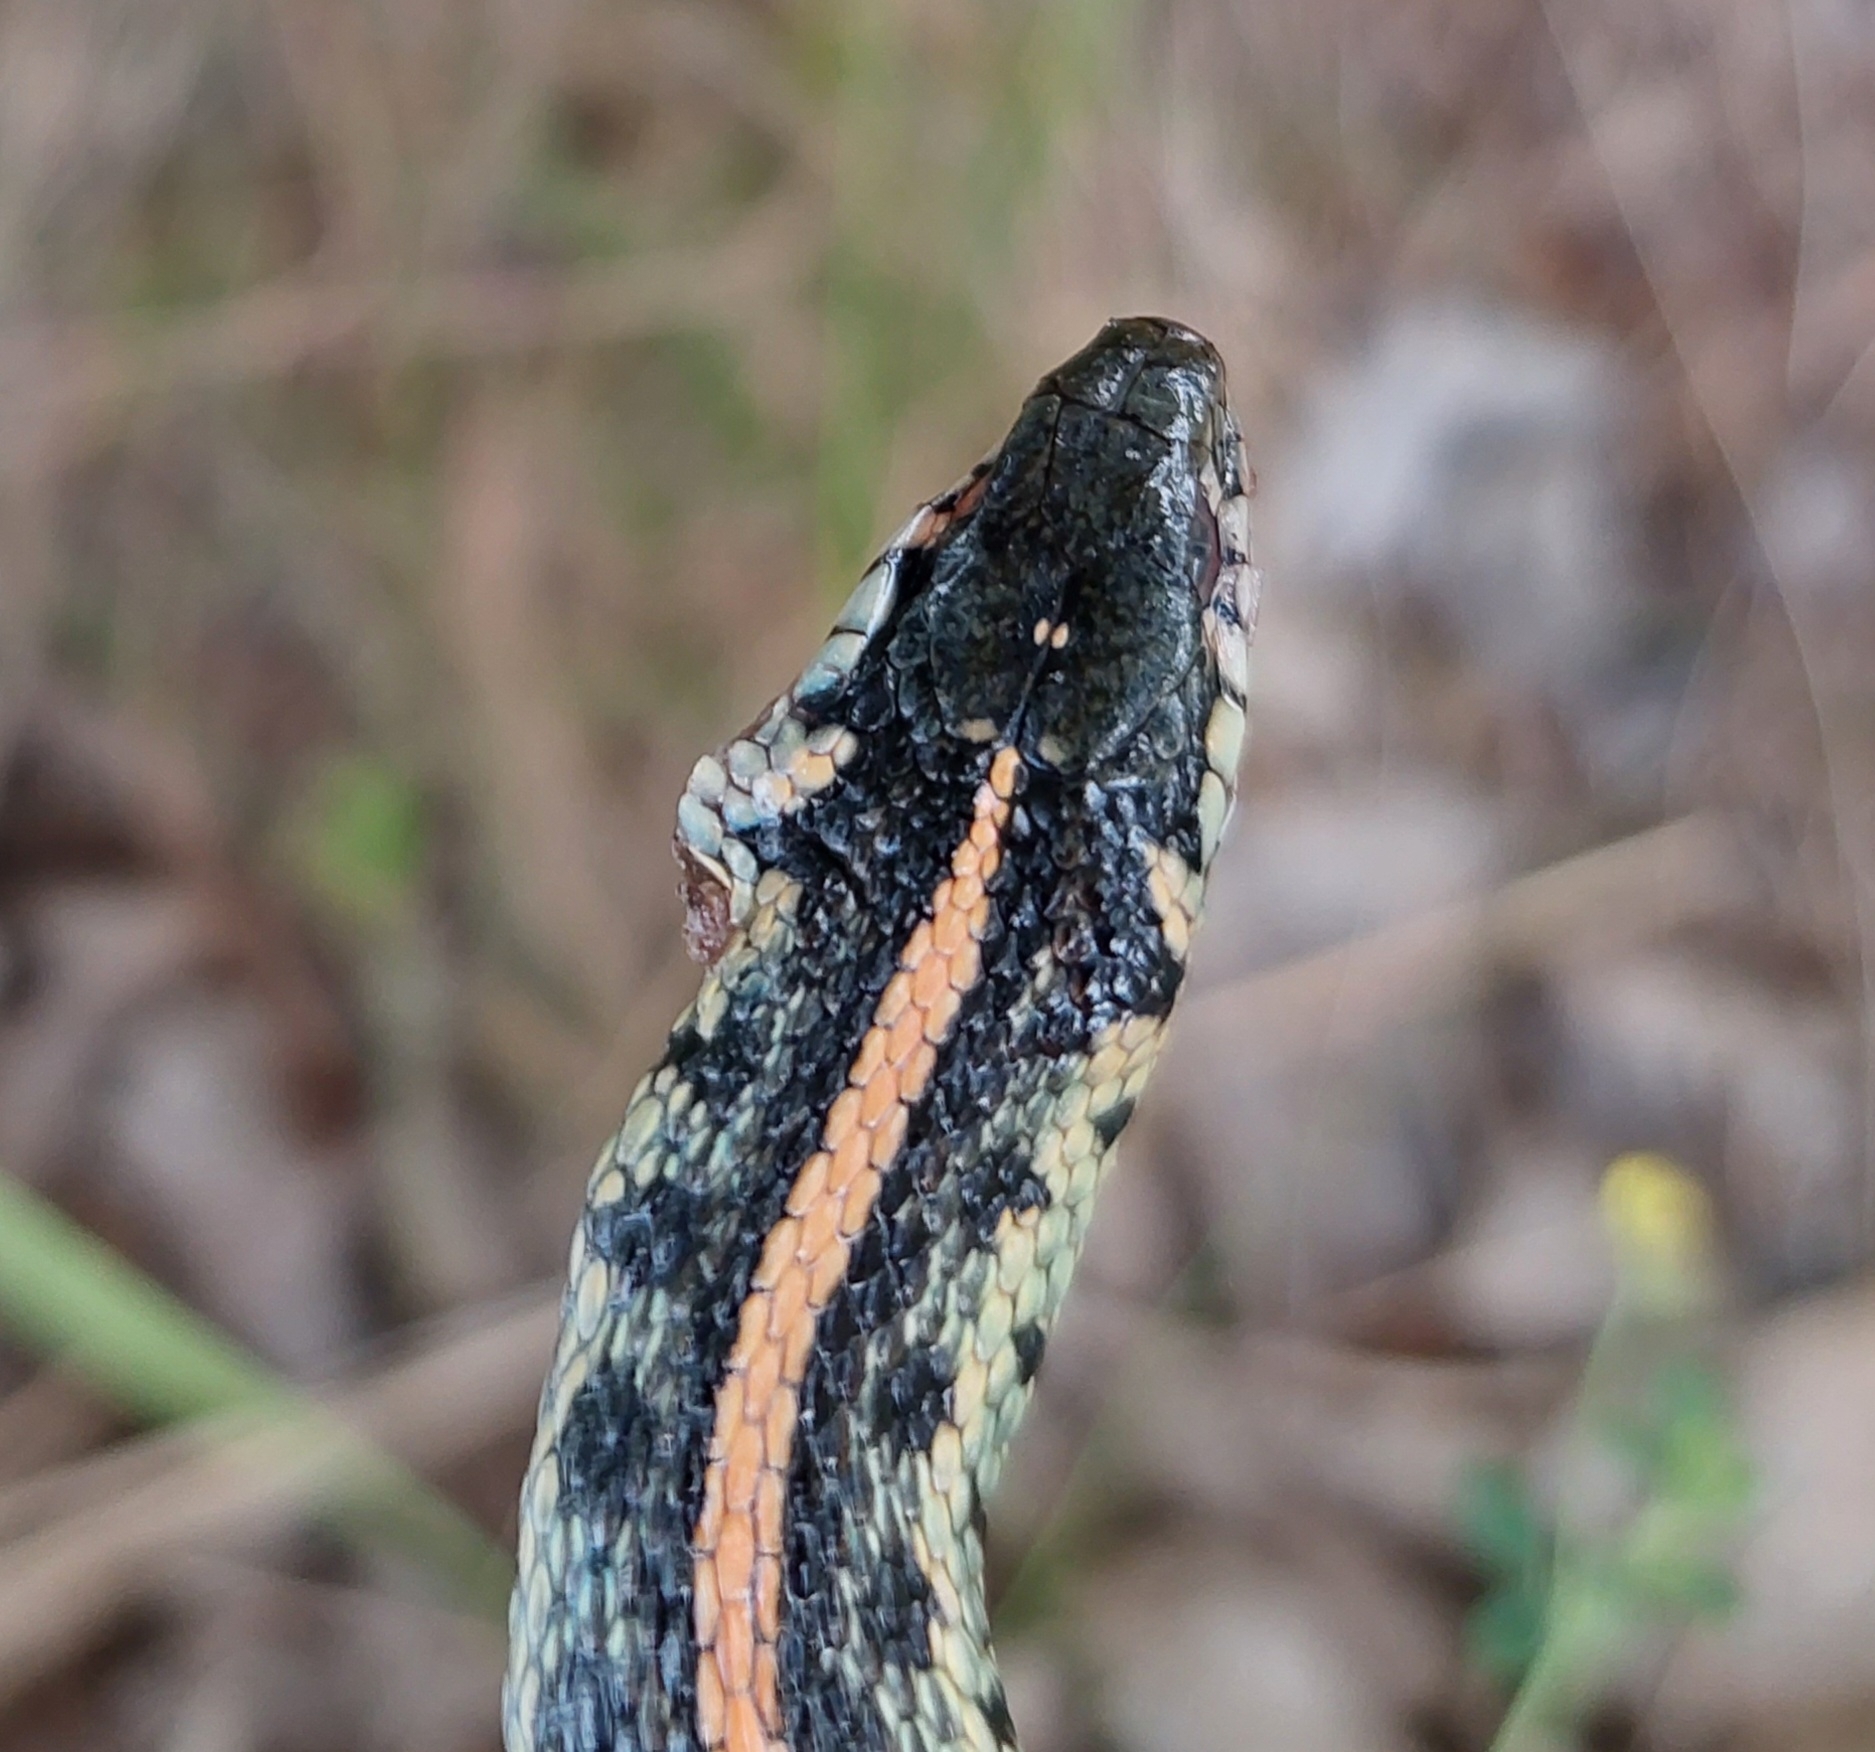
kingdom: Animalia
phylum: Chordata
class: Squamata
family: Colubridae
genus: Thamnophis
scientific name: Thamnophis radix
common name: Plains garter snake
